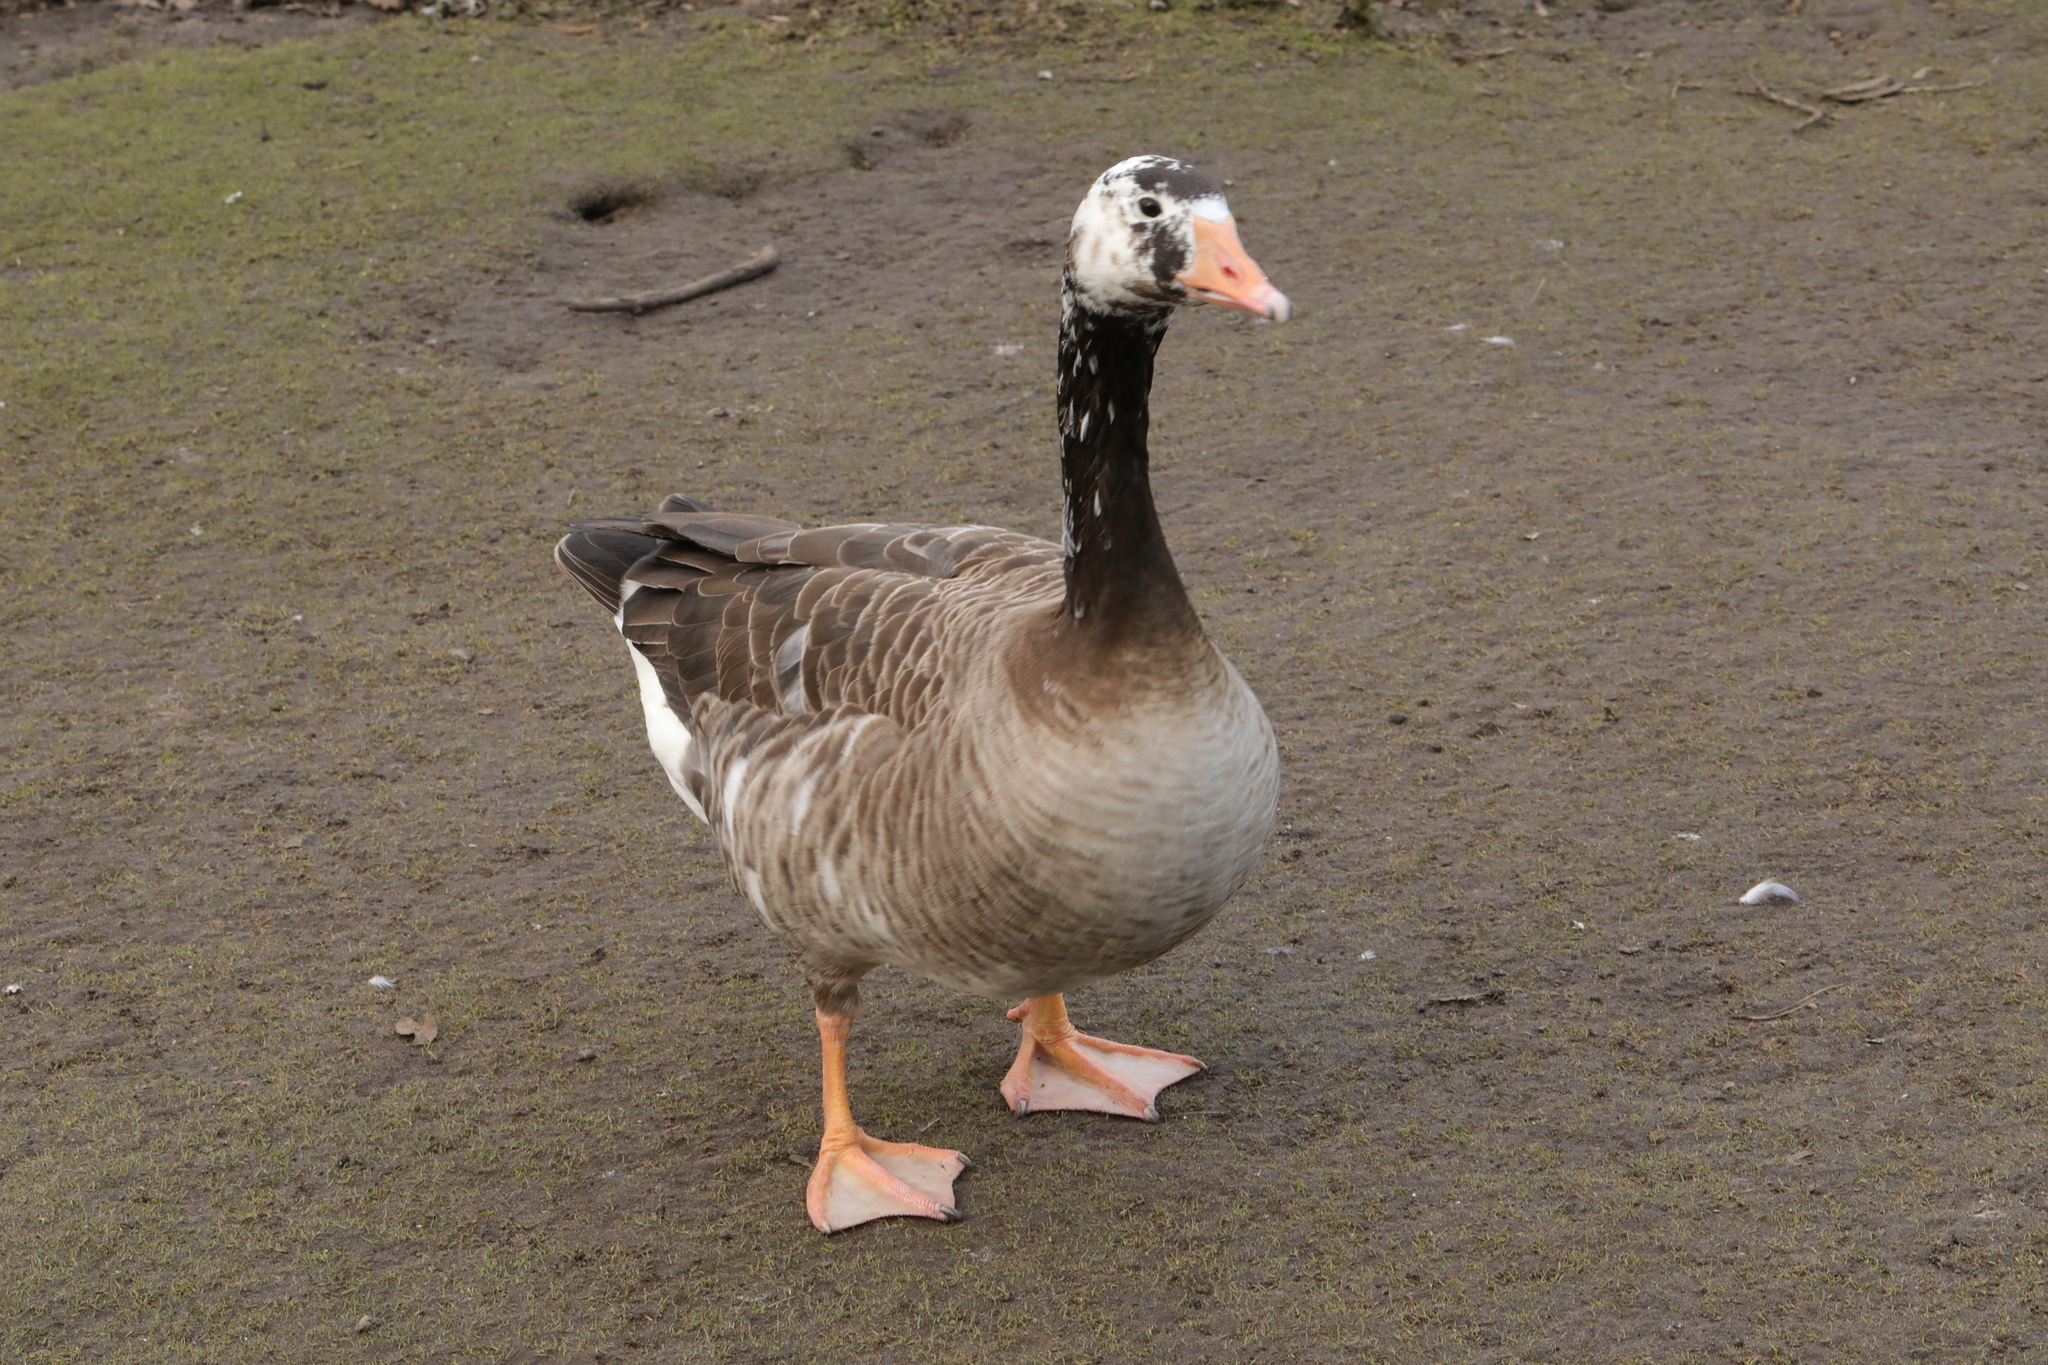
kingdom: Animalia
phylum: Chordata
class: Aves
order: Anseriformes
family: Anatidae
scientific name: Anatidae
